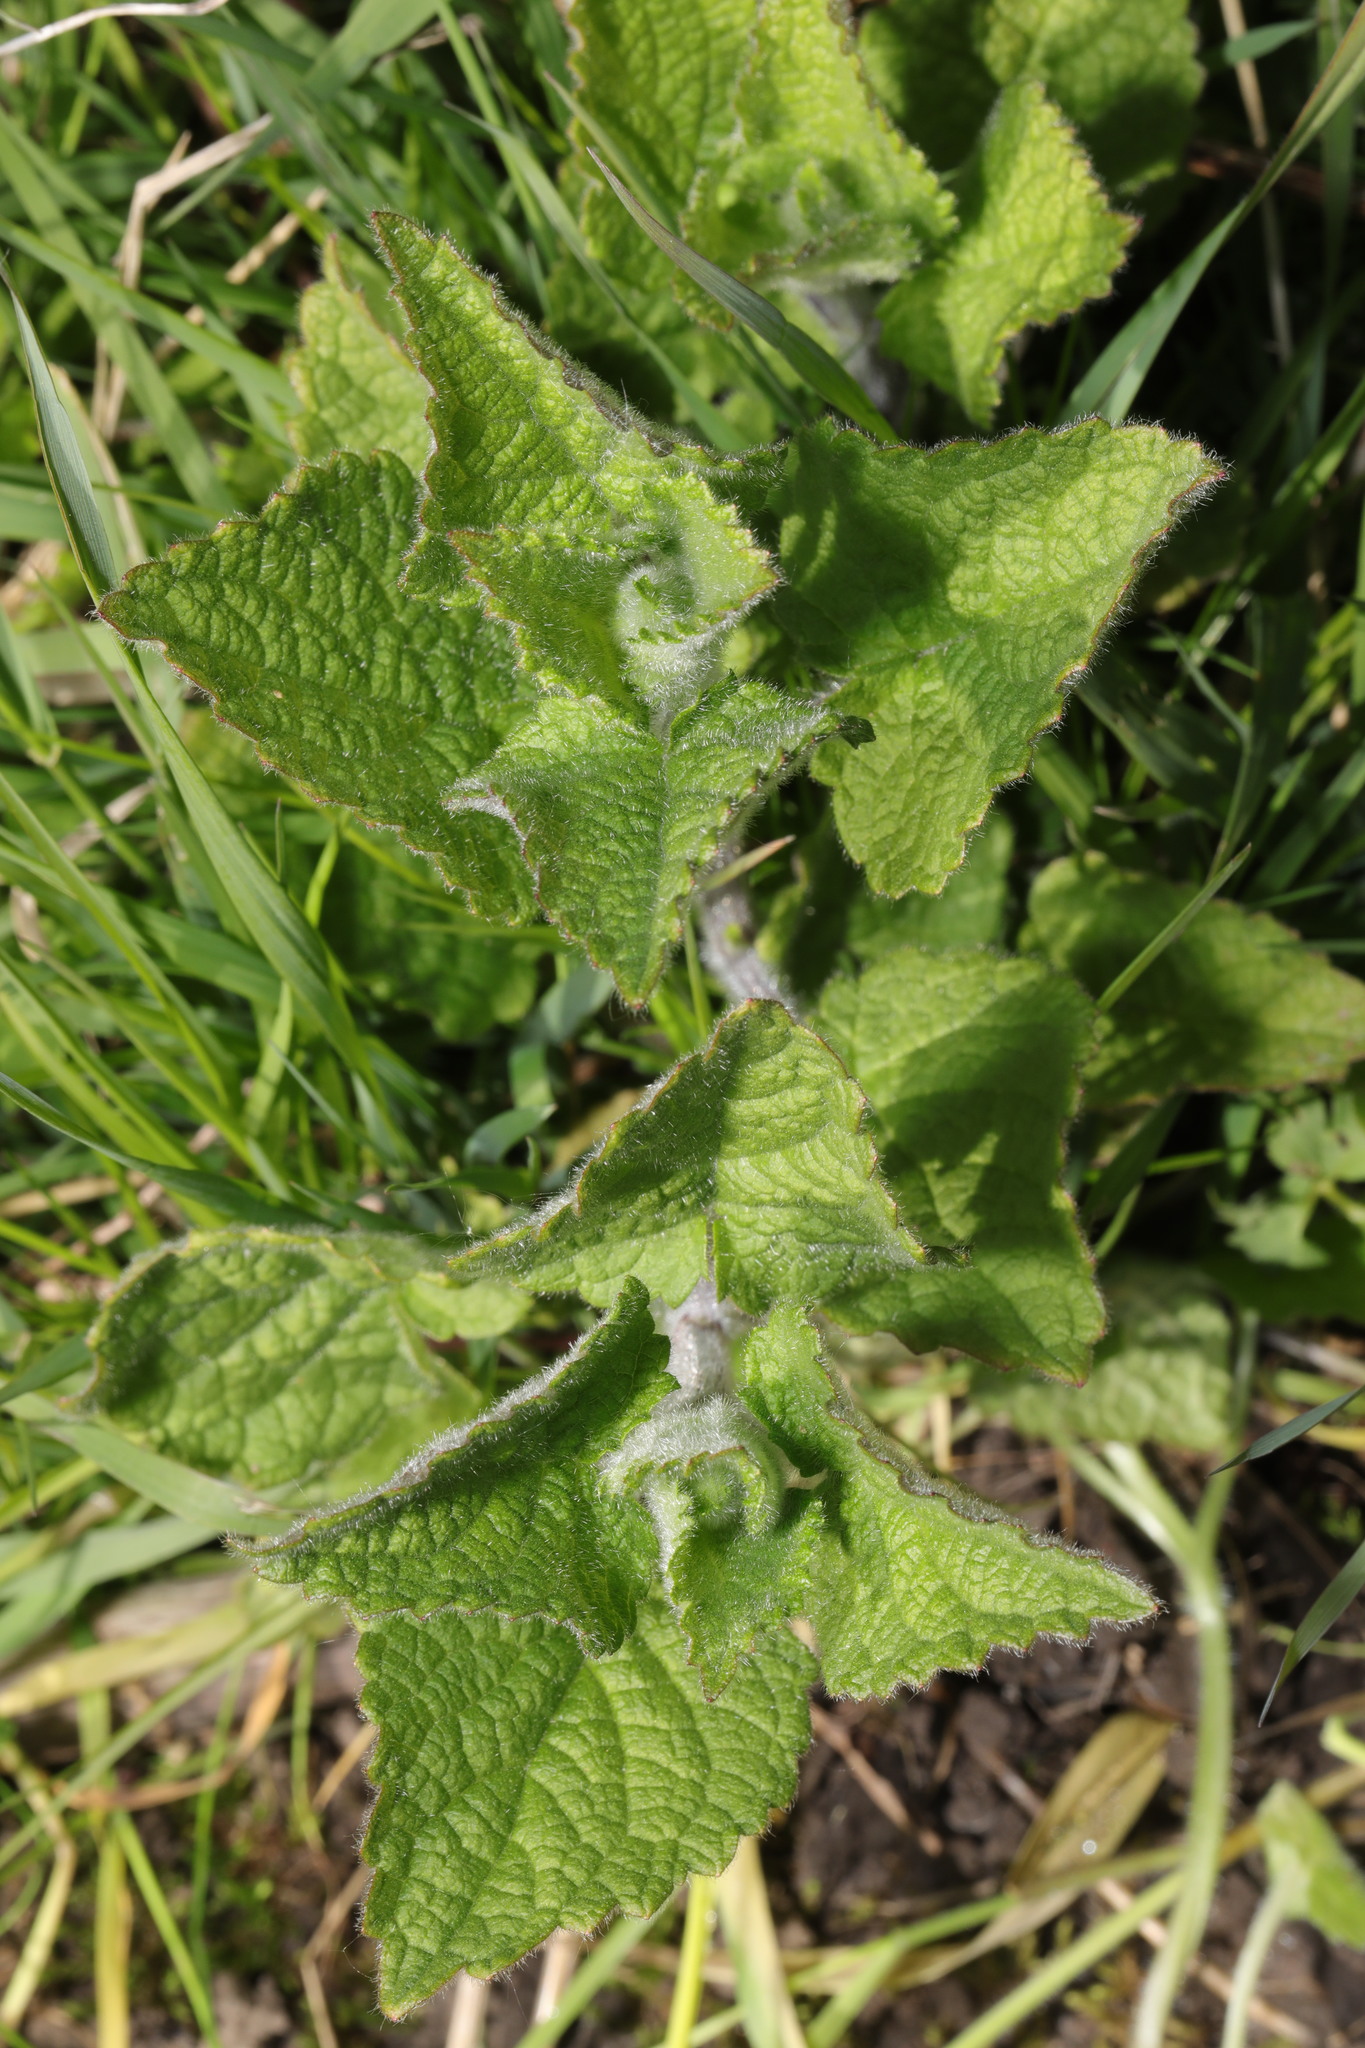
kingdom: Plantae
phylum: Tracheophyta
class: Magnoliopsida
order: Lamiales
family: Lamiaceae
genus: Stachys
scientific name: Stachys sylvatica
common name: Hedge woundwort
